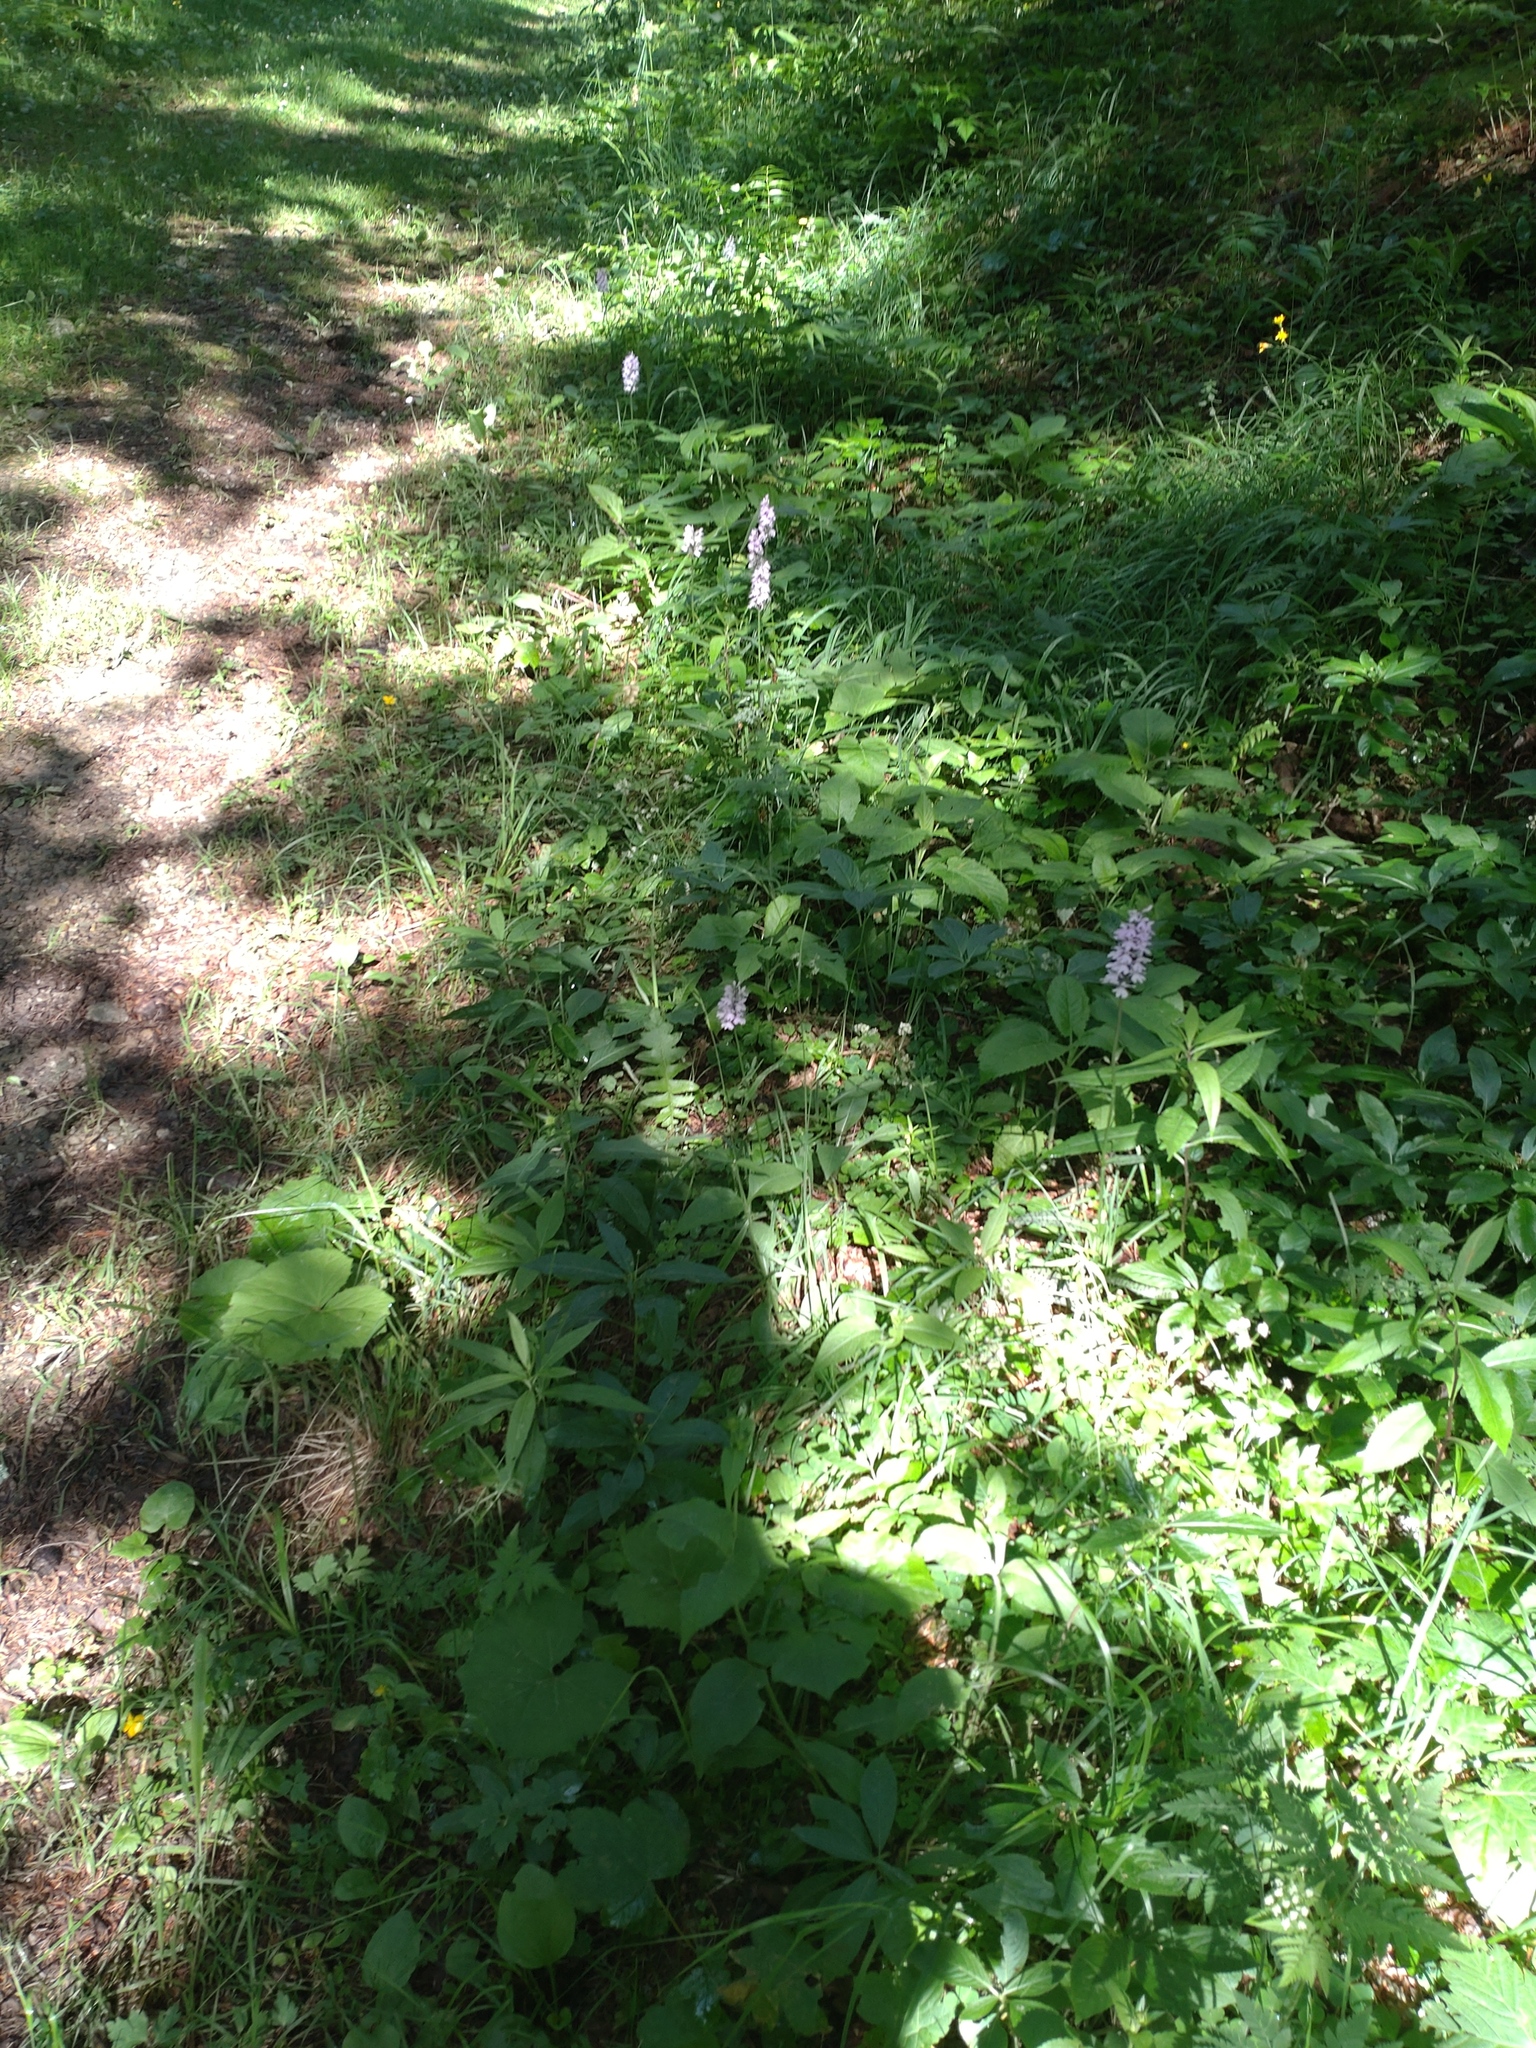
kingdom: Plantae
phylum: Tracheophyta
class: Liliopsida
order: Asparagales
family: Orchidaceae
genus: Dactylorhiza
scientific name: Dactylorhiza maculata
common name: Heath spotted-orchid
